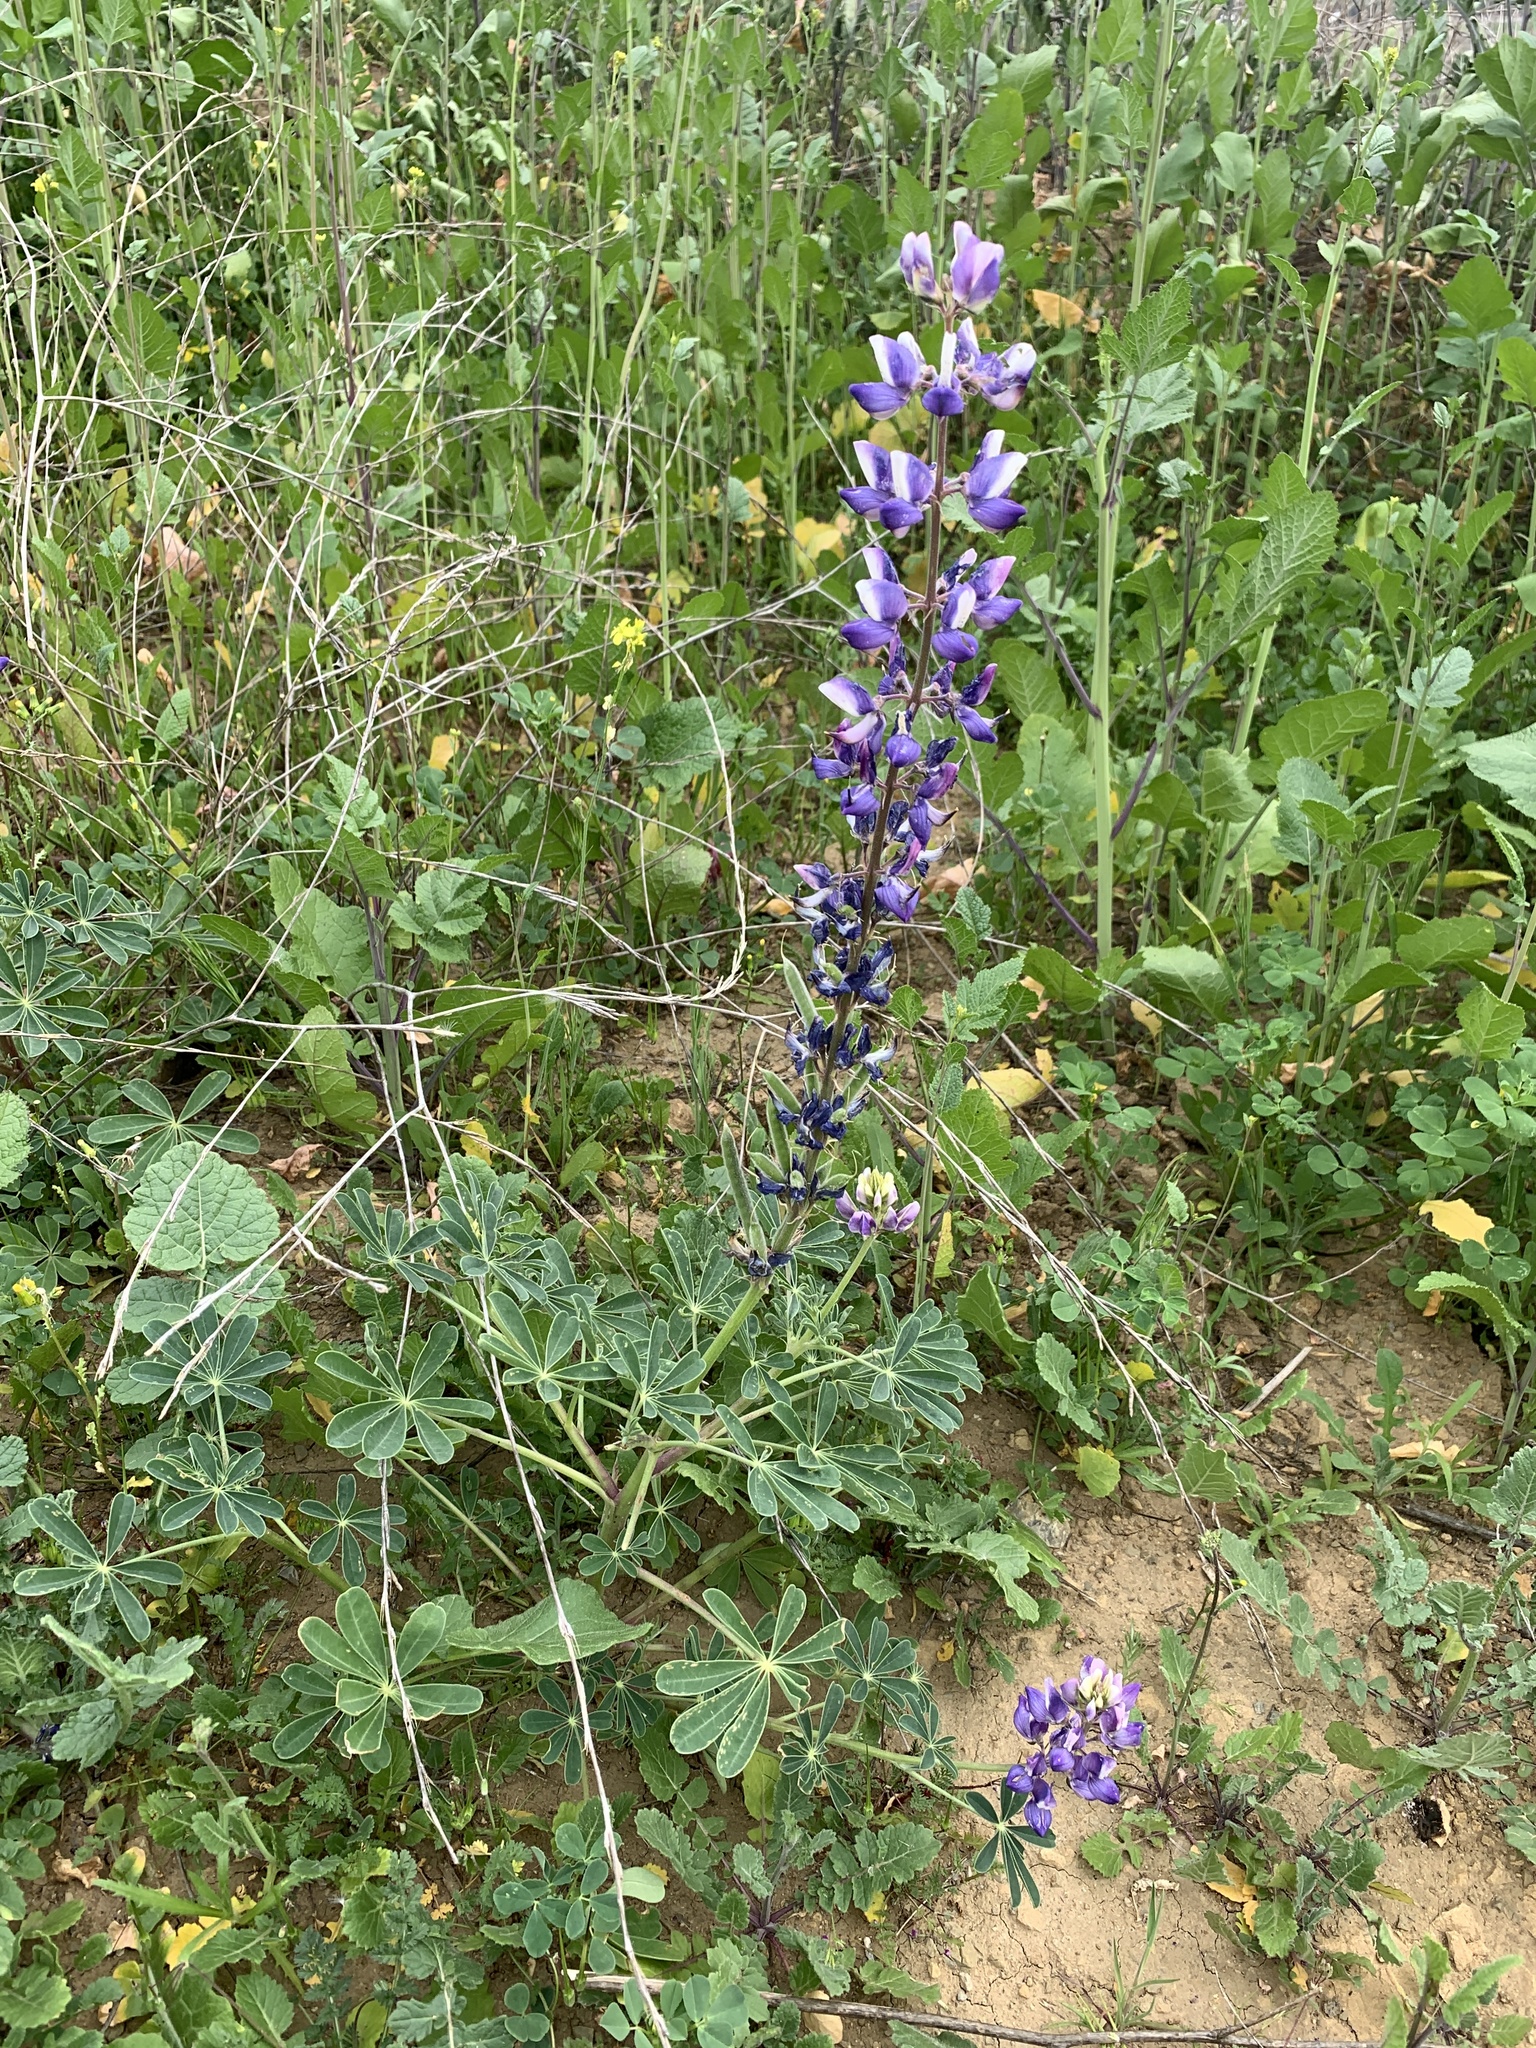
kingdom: Plantae
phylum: Tracheophyta
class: Magnoliopsida
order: Fabales
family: Fabaceae
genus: Lupinus
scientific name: Lupinus succulentus
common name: Arroyo lupine
